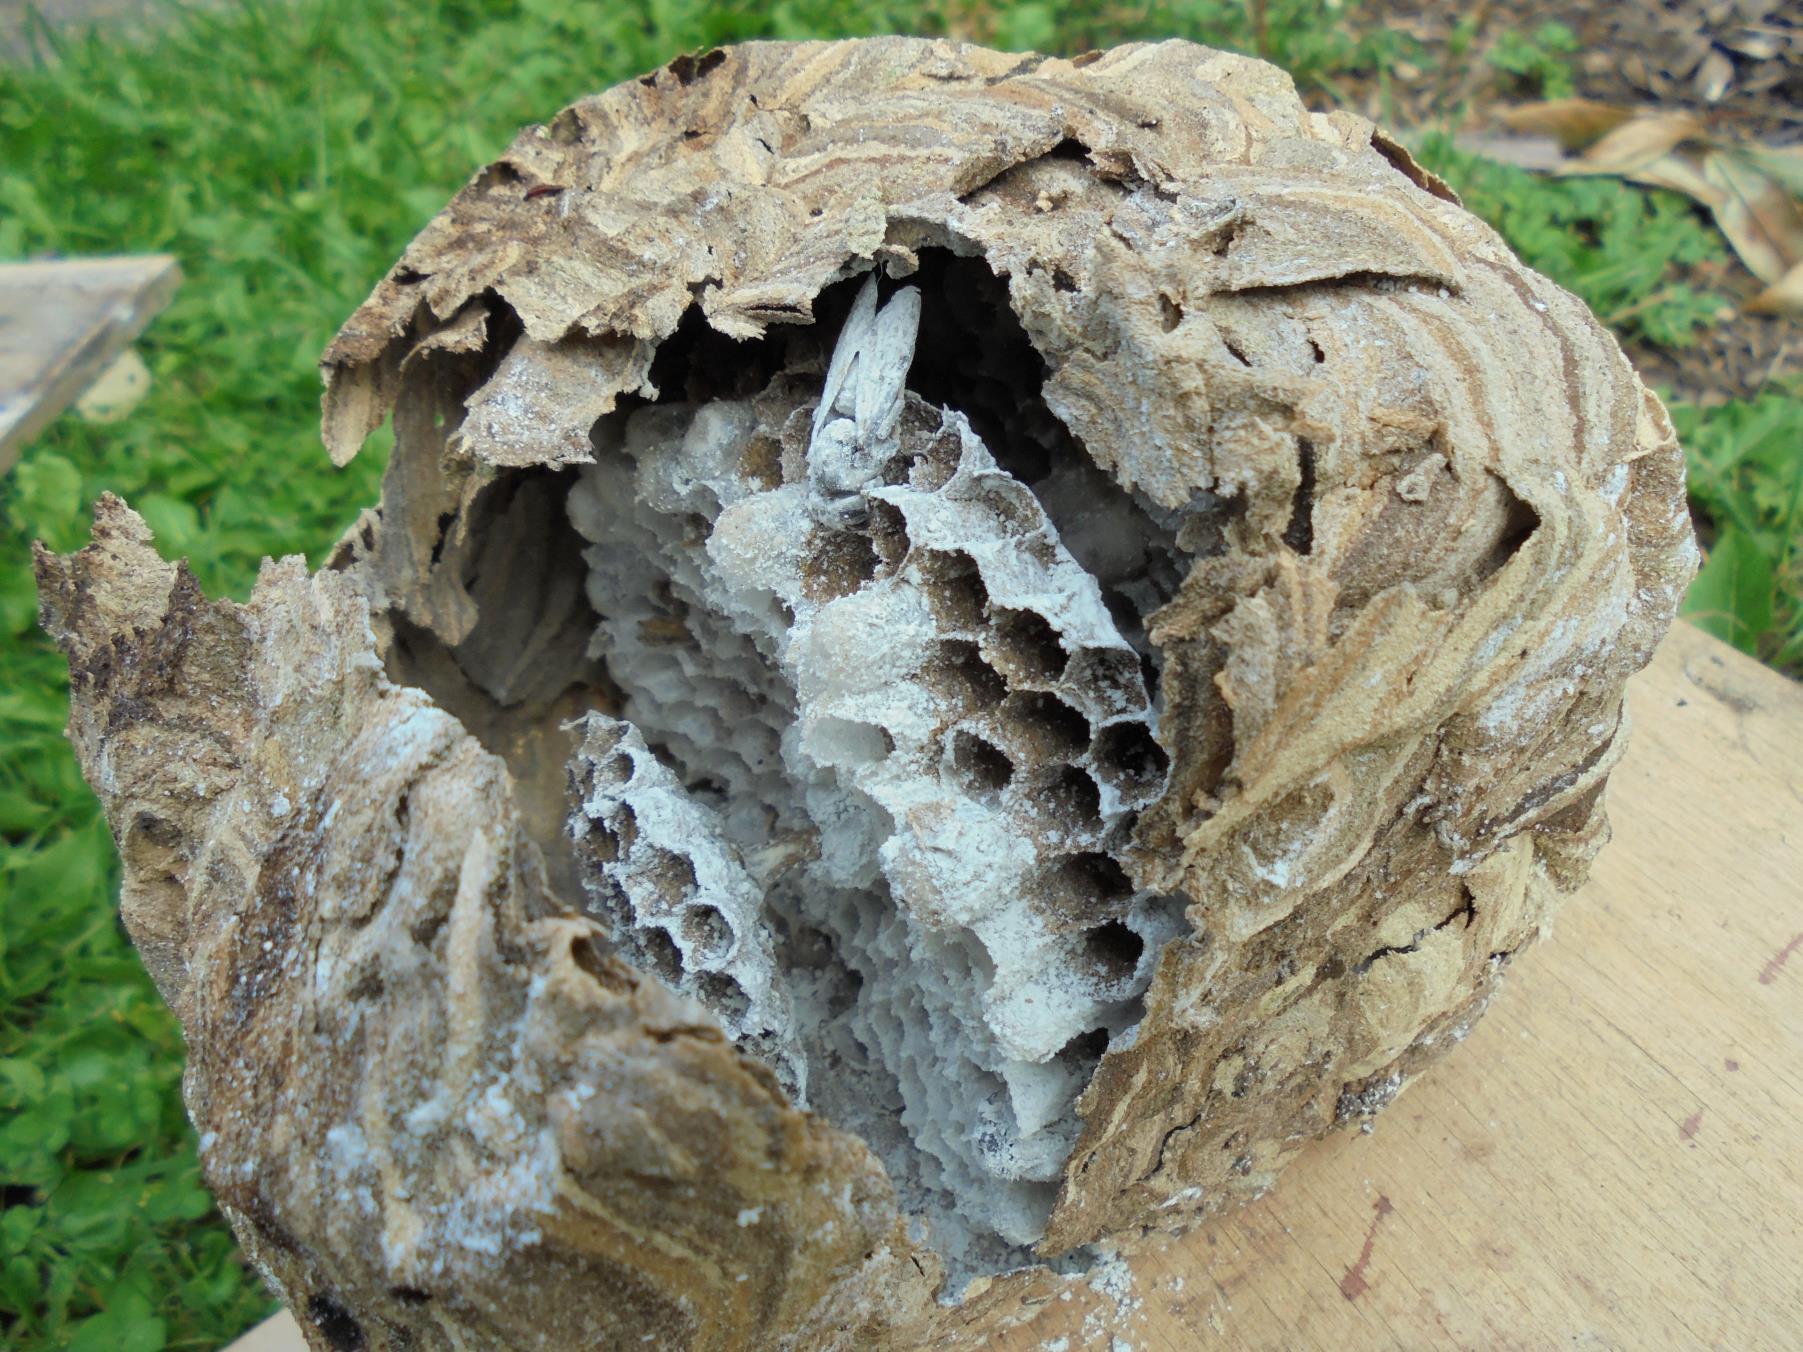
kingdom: Animalia
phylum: Arthropoda
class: Insecta
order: Hymenoptera
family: Vespidae
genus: Vespa
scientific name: Vespa velutina
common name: Asian hornet
